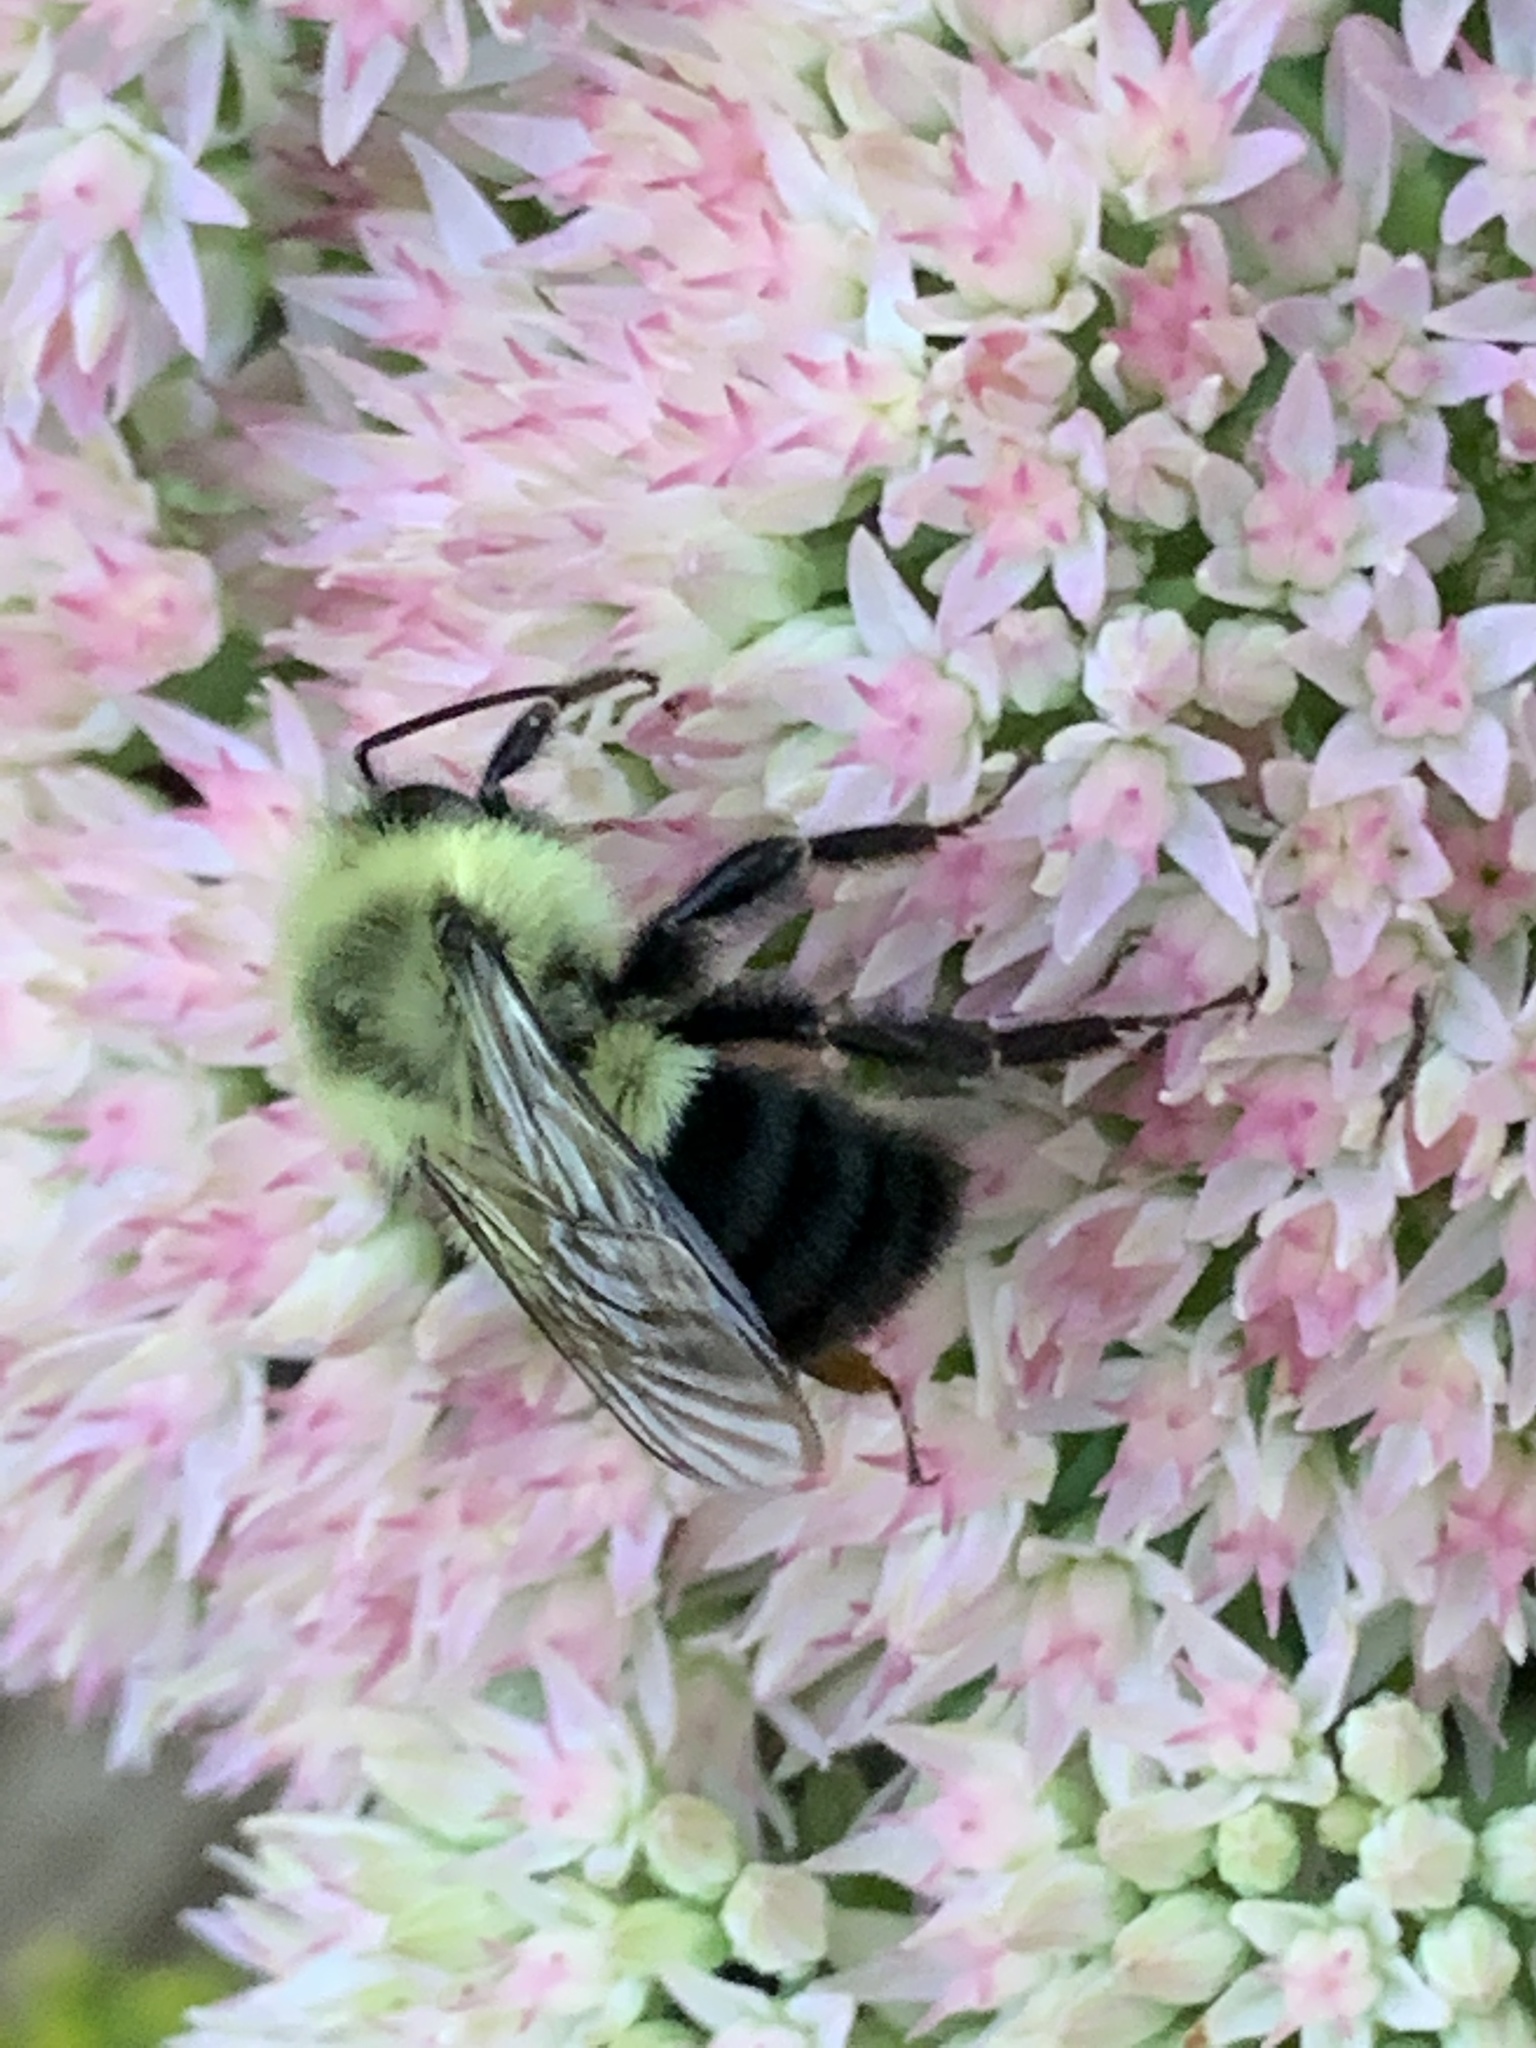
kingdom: Animalia
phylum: Arthropoda
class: Insecta
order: Hymenoptera
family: Apidae
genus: Bombus
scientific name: Bombus impatiens
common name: Common eastern bumble bee
